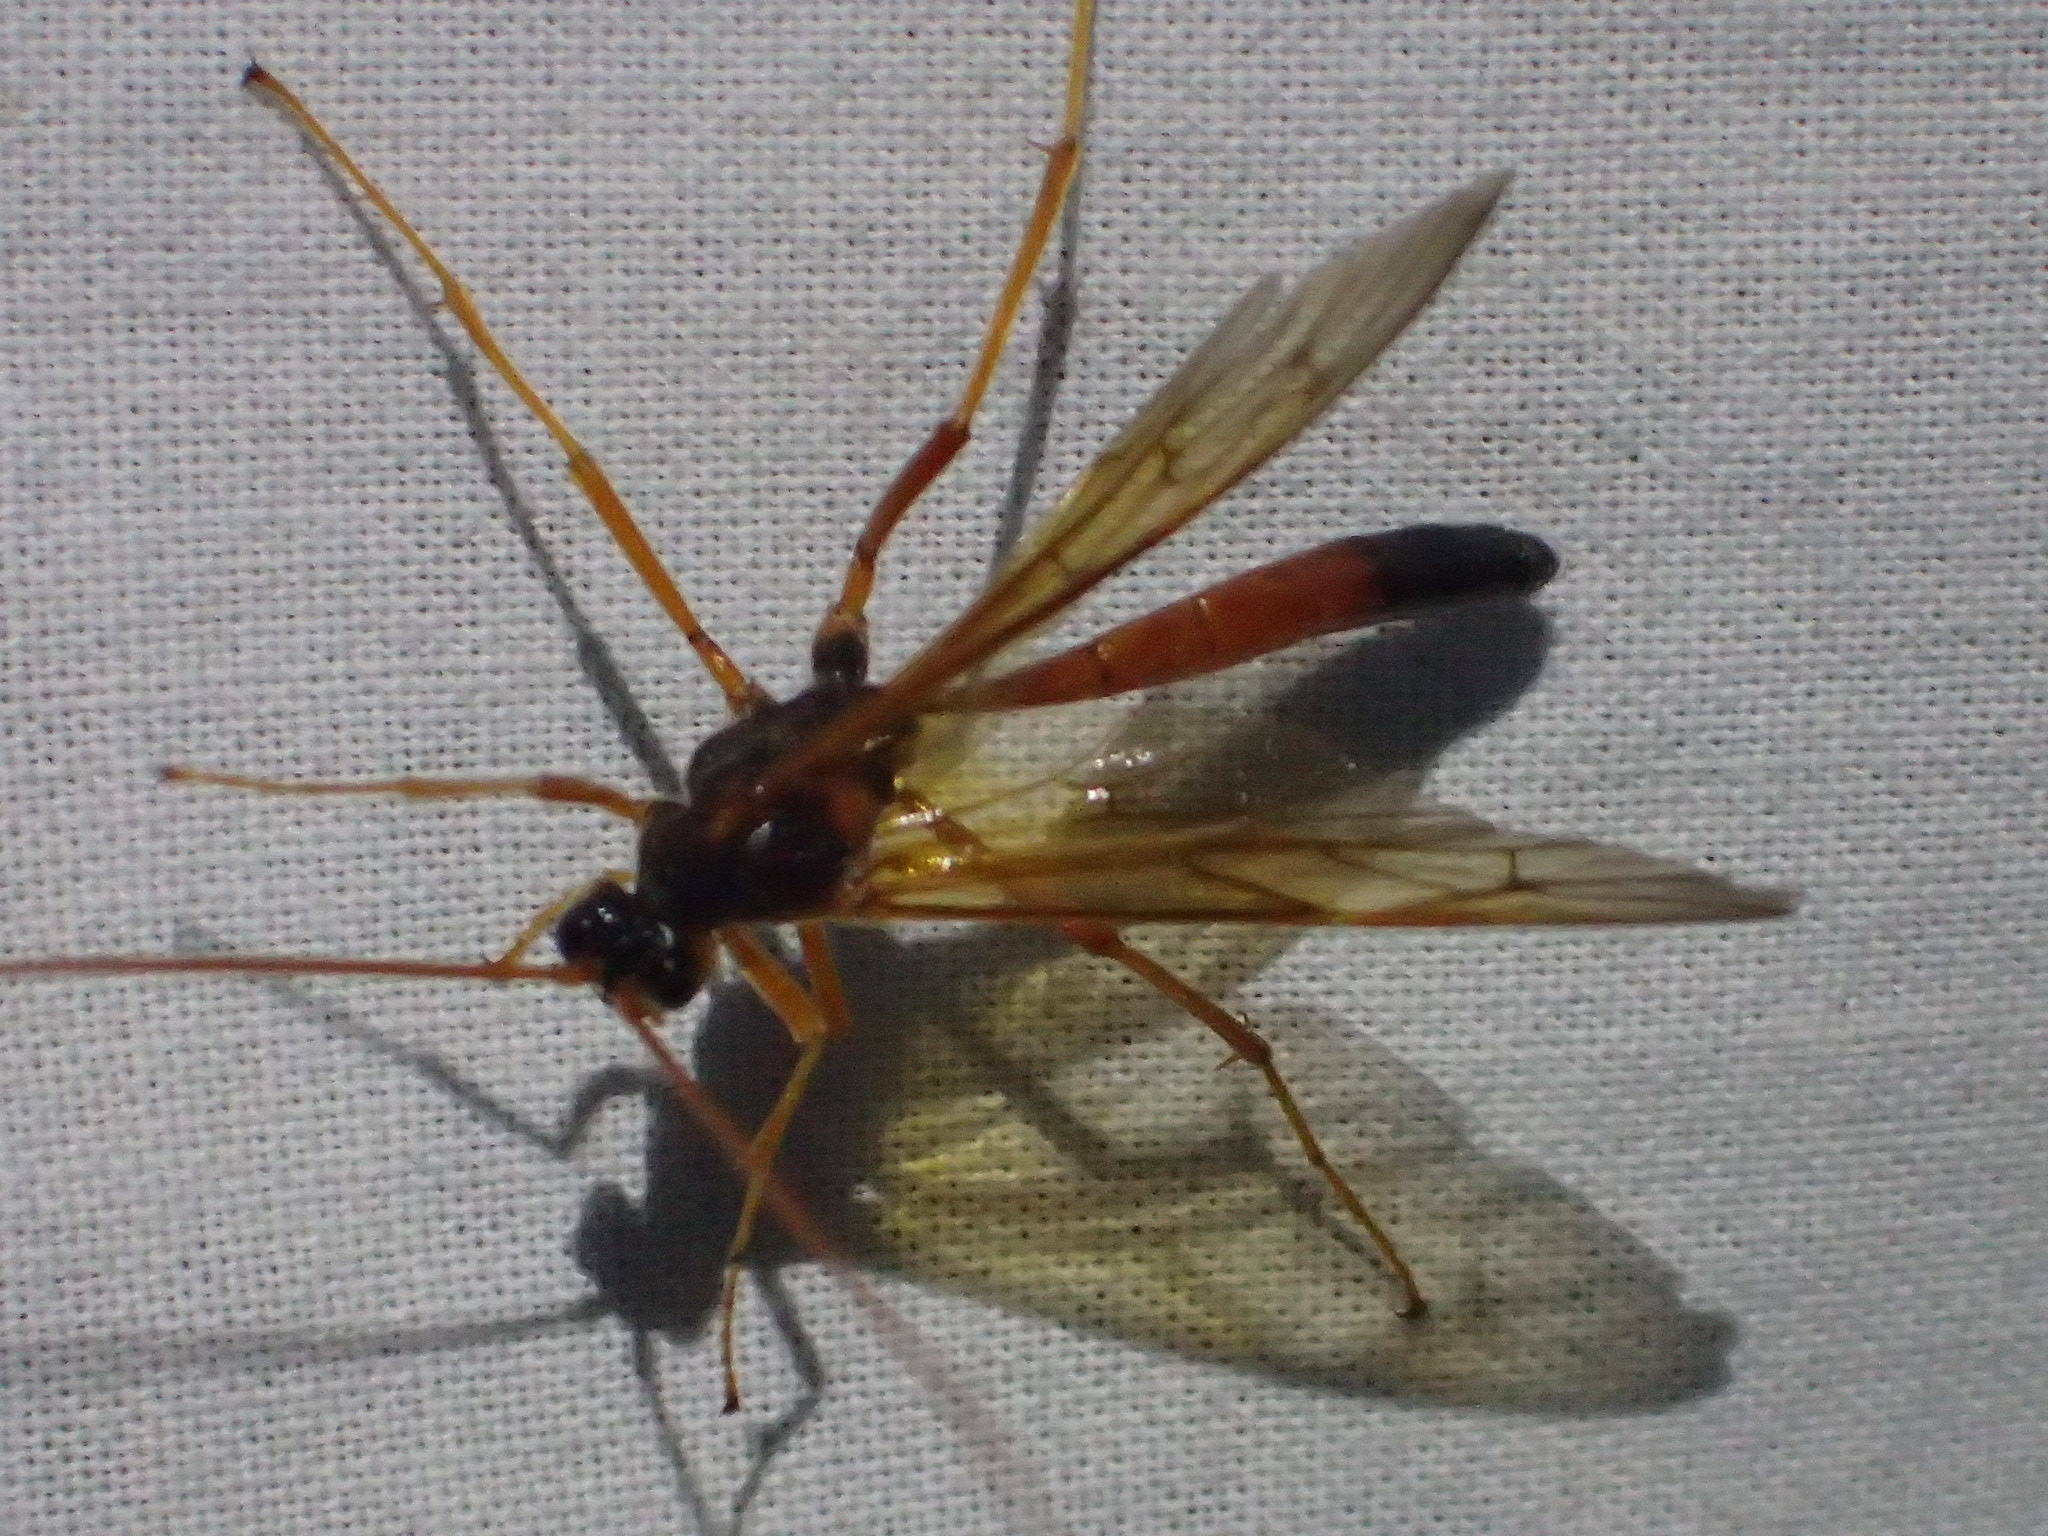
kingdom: Animalia
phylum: Arthropoda
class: Insecta
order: Hymenoptera
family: Ichneumonidae
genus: Opheltes
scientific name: Opheltes glaucopterus
